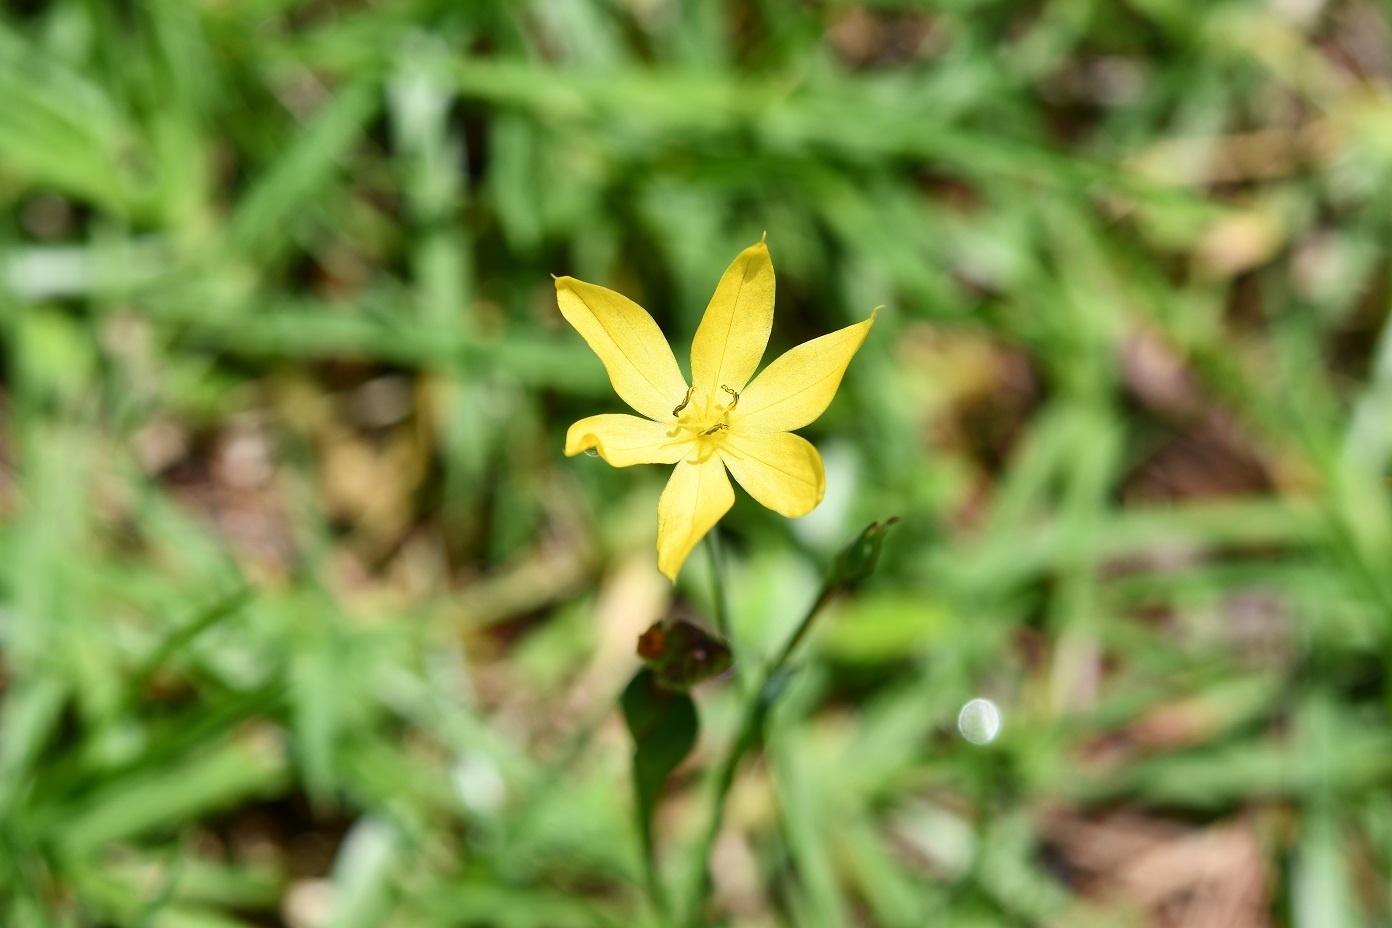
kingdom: Plantae
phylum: Tracheophyta
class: Liliopsida
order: Asparagales
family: Iridaceae
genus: Sisyrinchium
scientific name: Sisyrinchium tenuifolium
